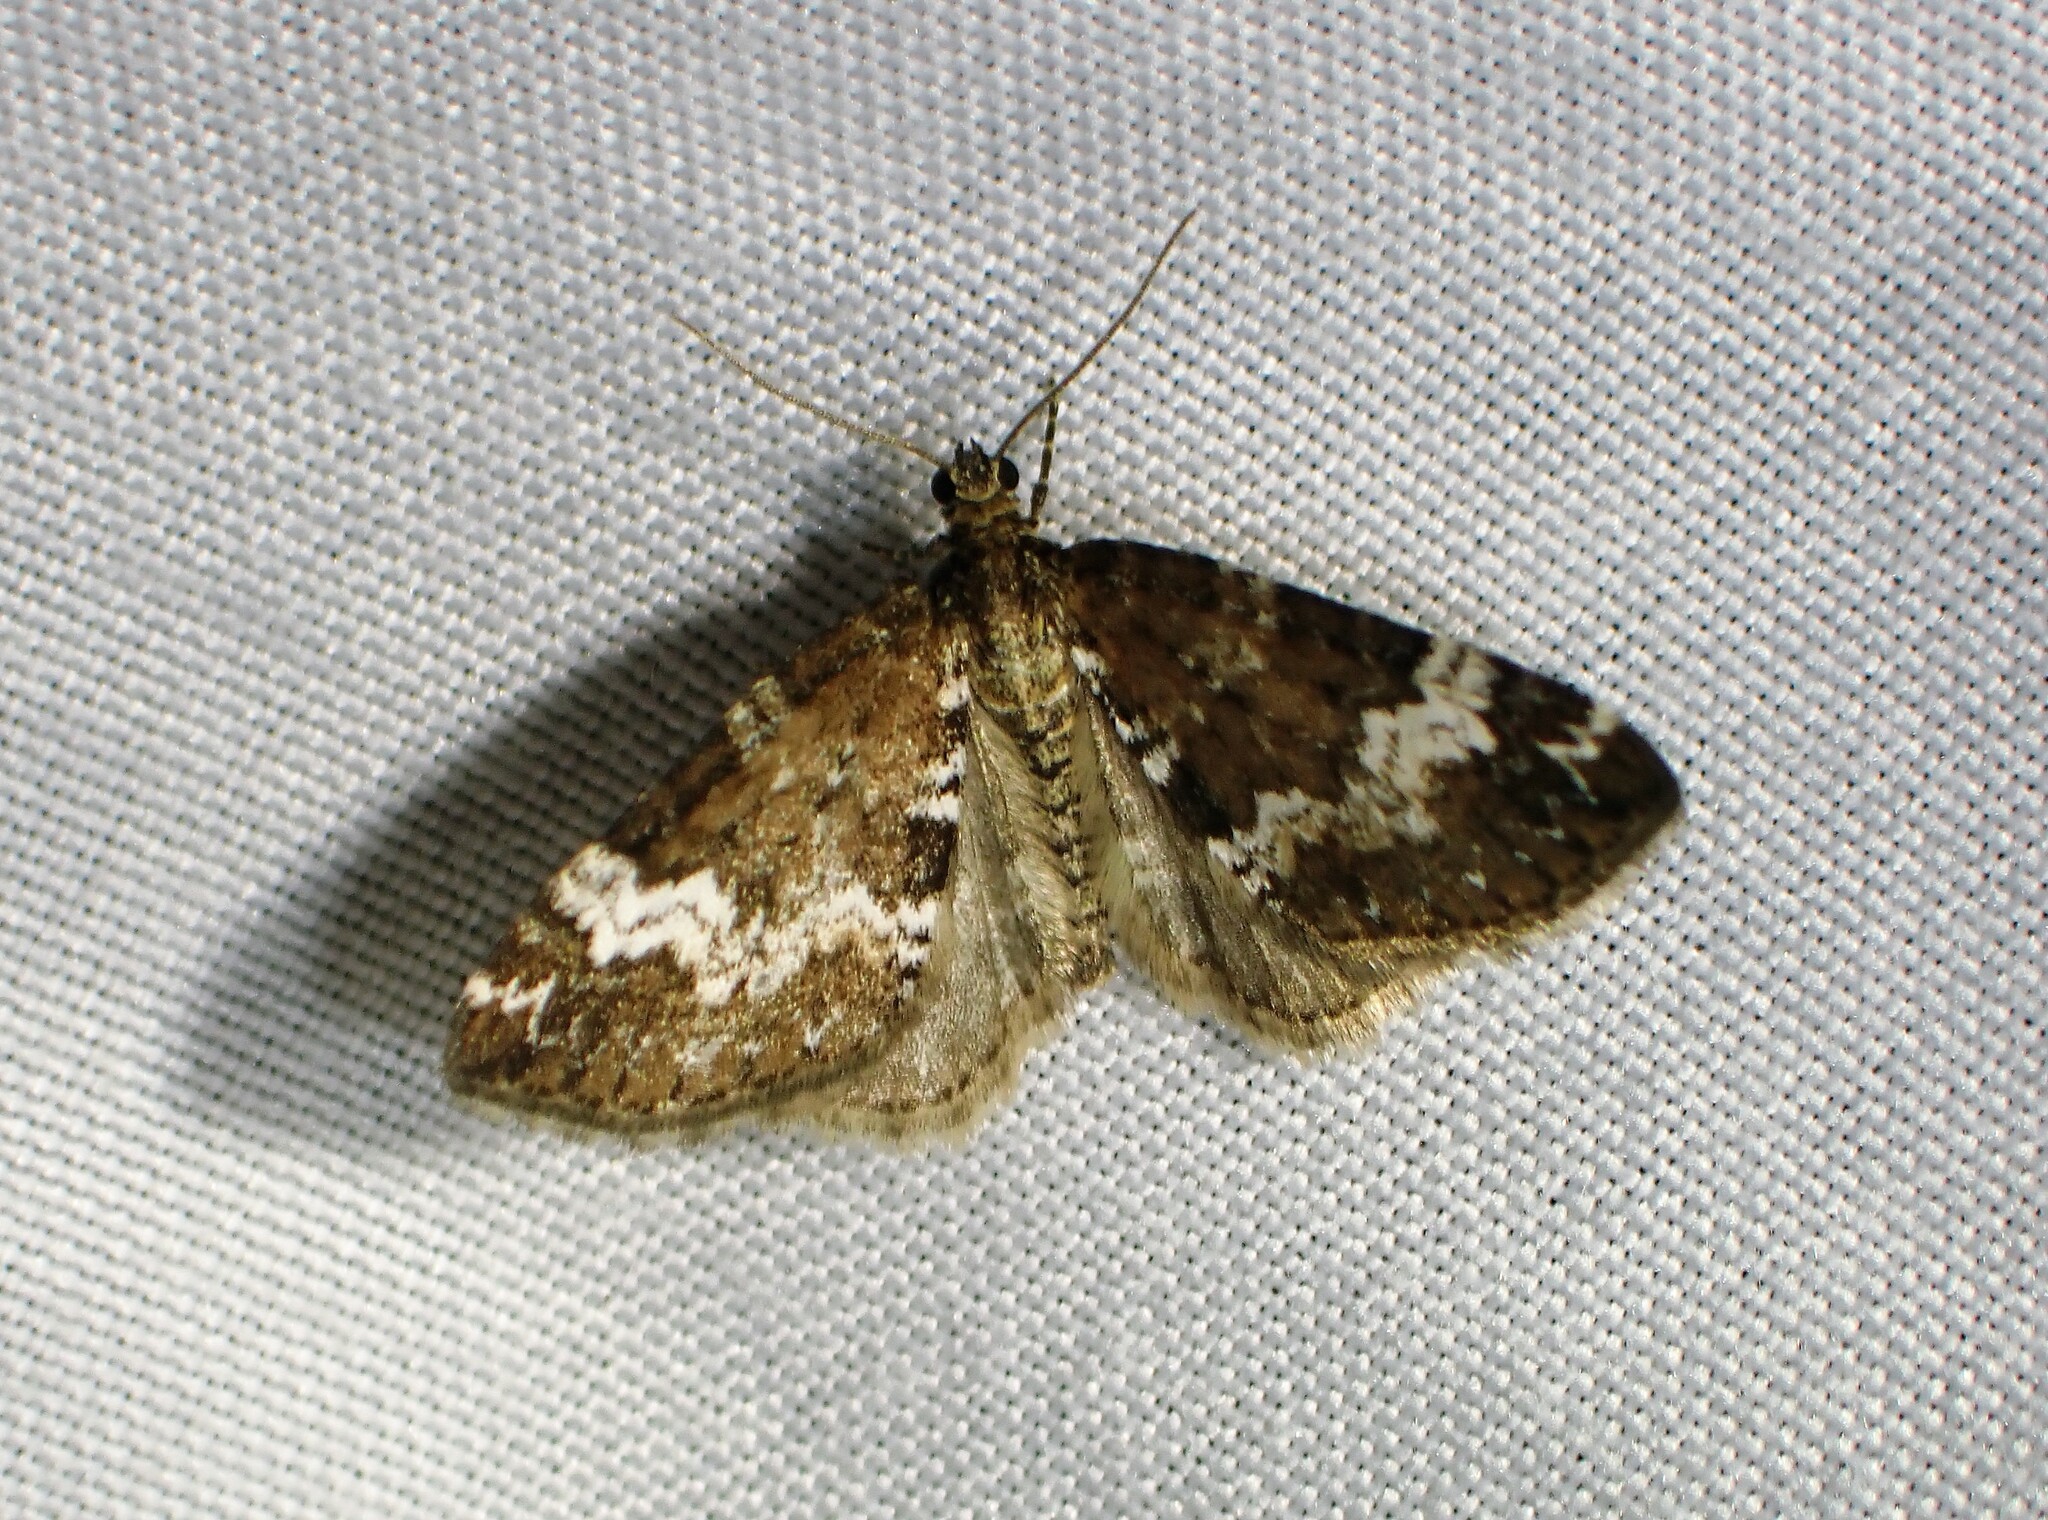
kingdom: Animalia
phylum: Arthropoda
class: Insecta
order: Lepidoptera
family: Geometridae
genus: Perizoma
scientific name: Perizoma alchemillata
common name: Small rivulet
